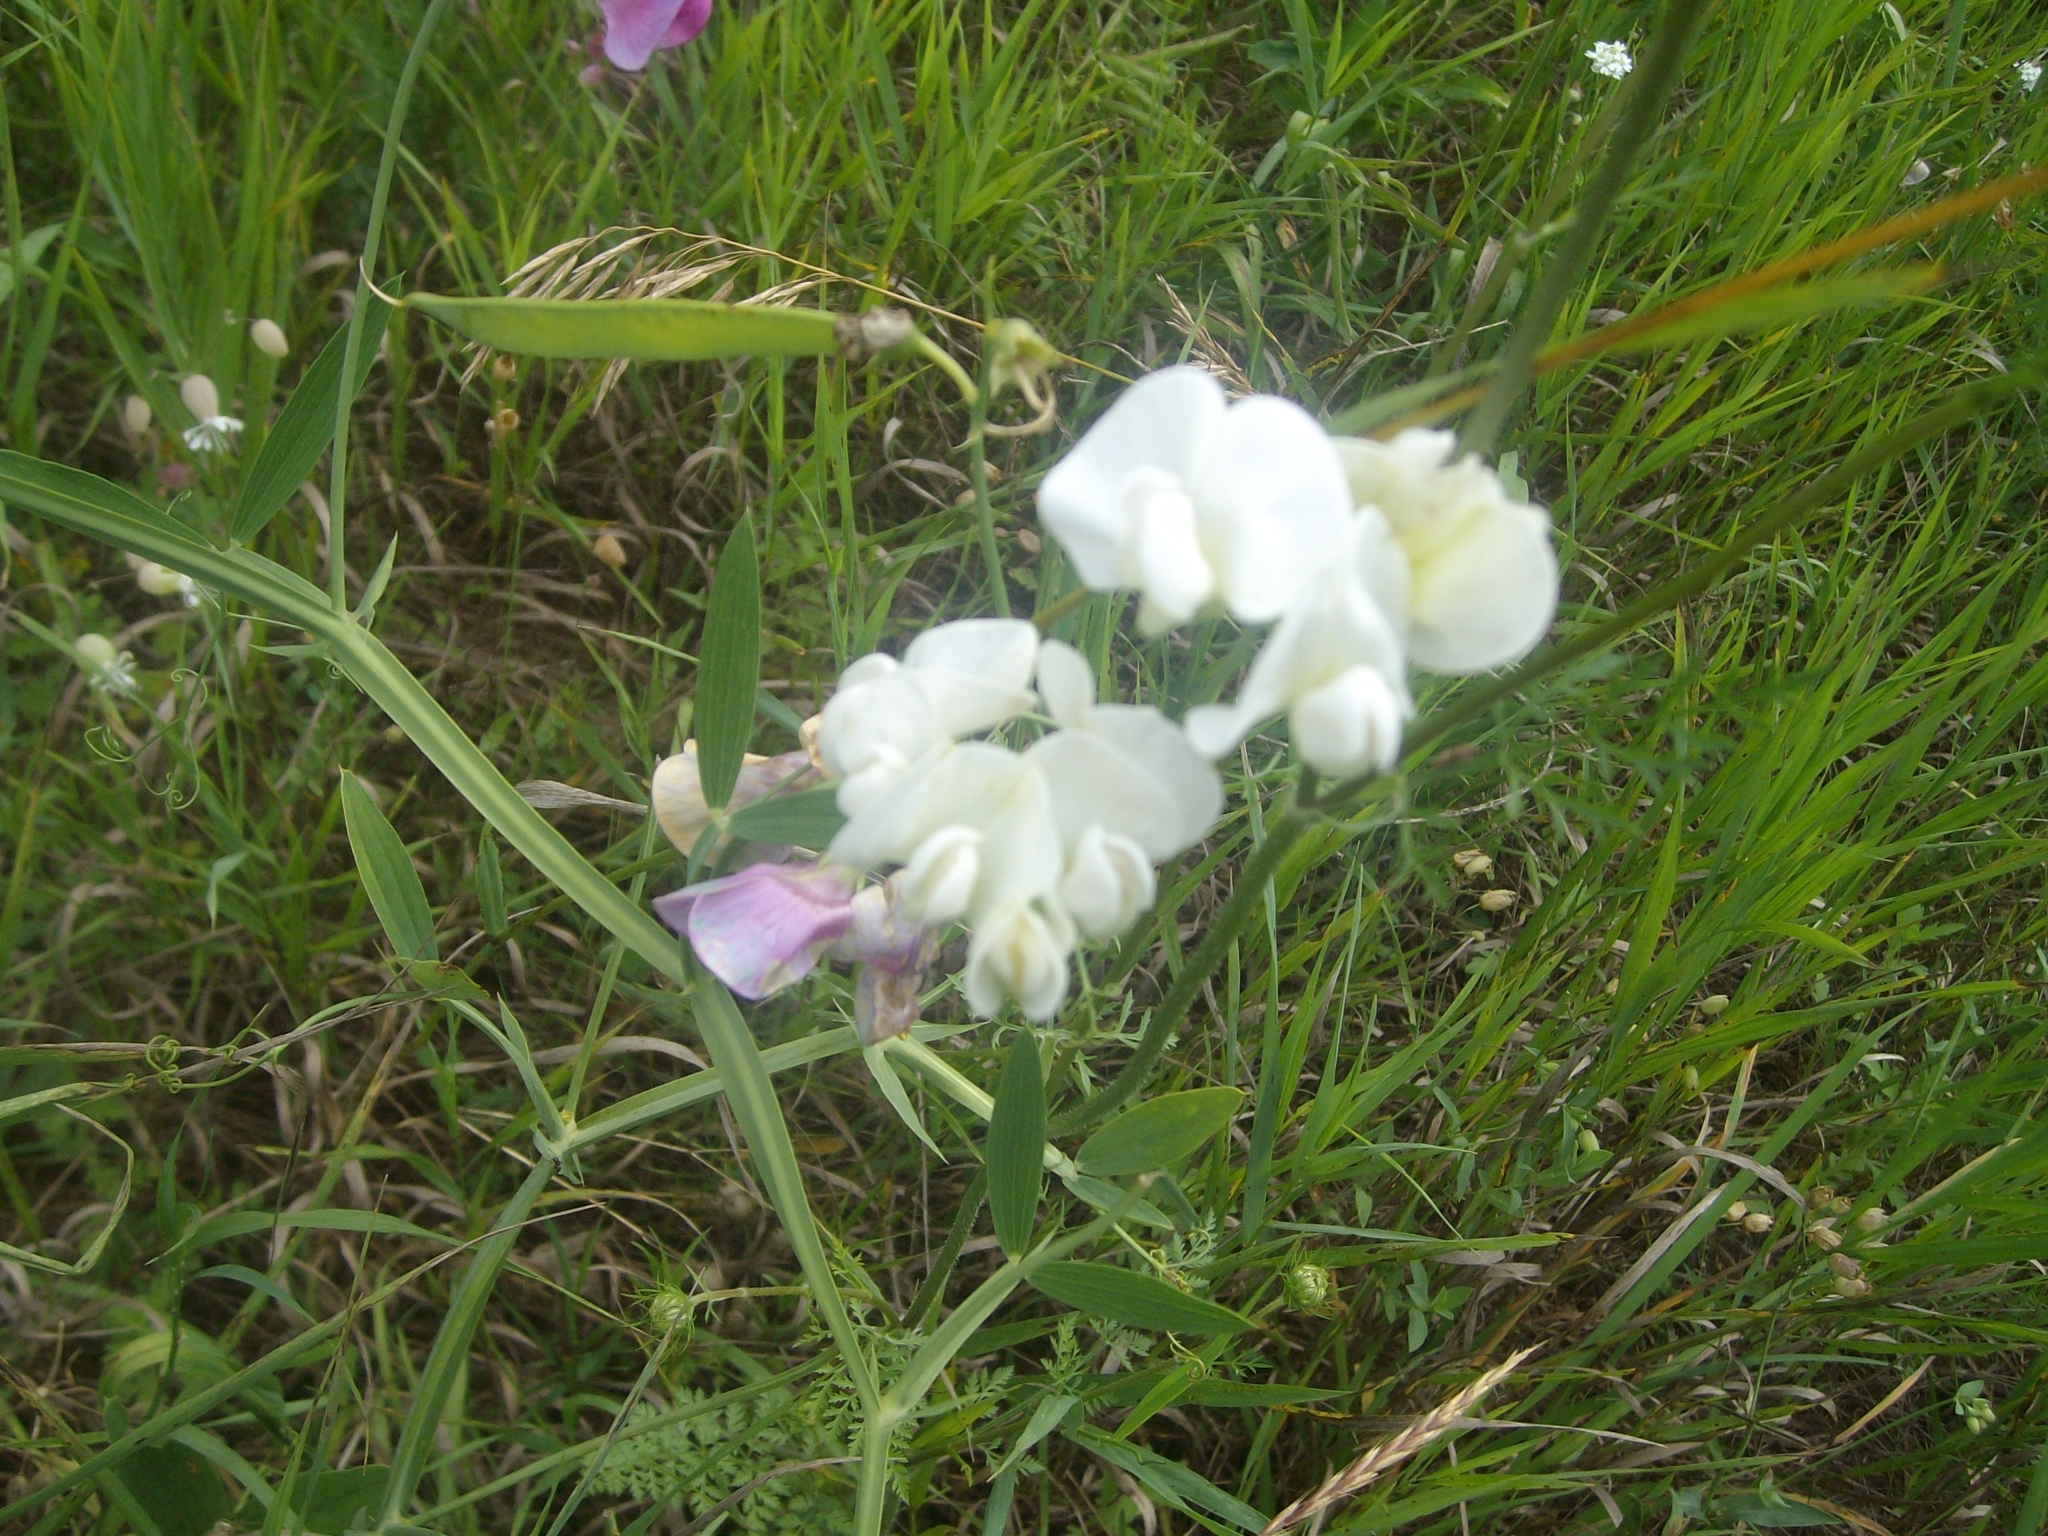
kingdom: Plantae
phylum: Tracheophyta
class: Magnoliopsida
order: Fabales
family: Fabaceae
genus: Lathyrus
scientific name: Lathyrus latifolius
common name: Perennial pea
